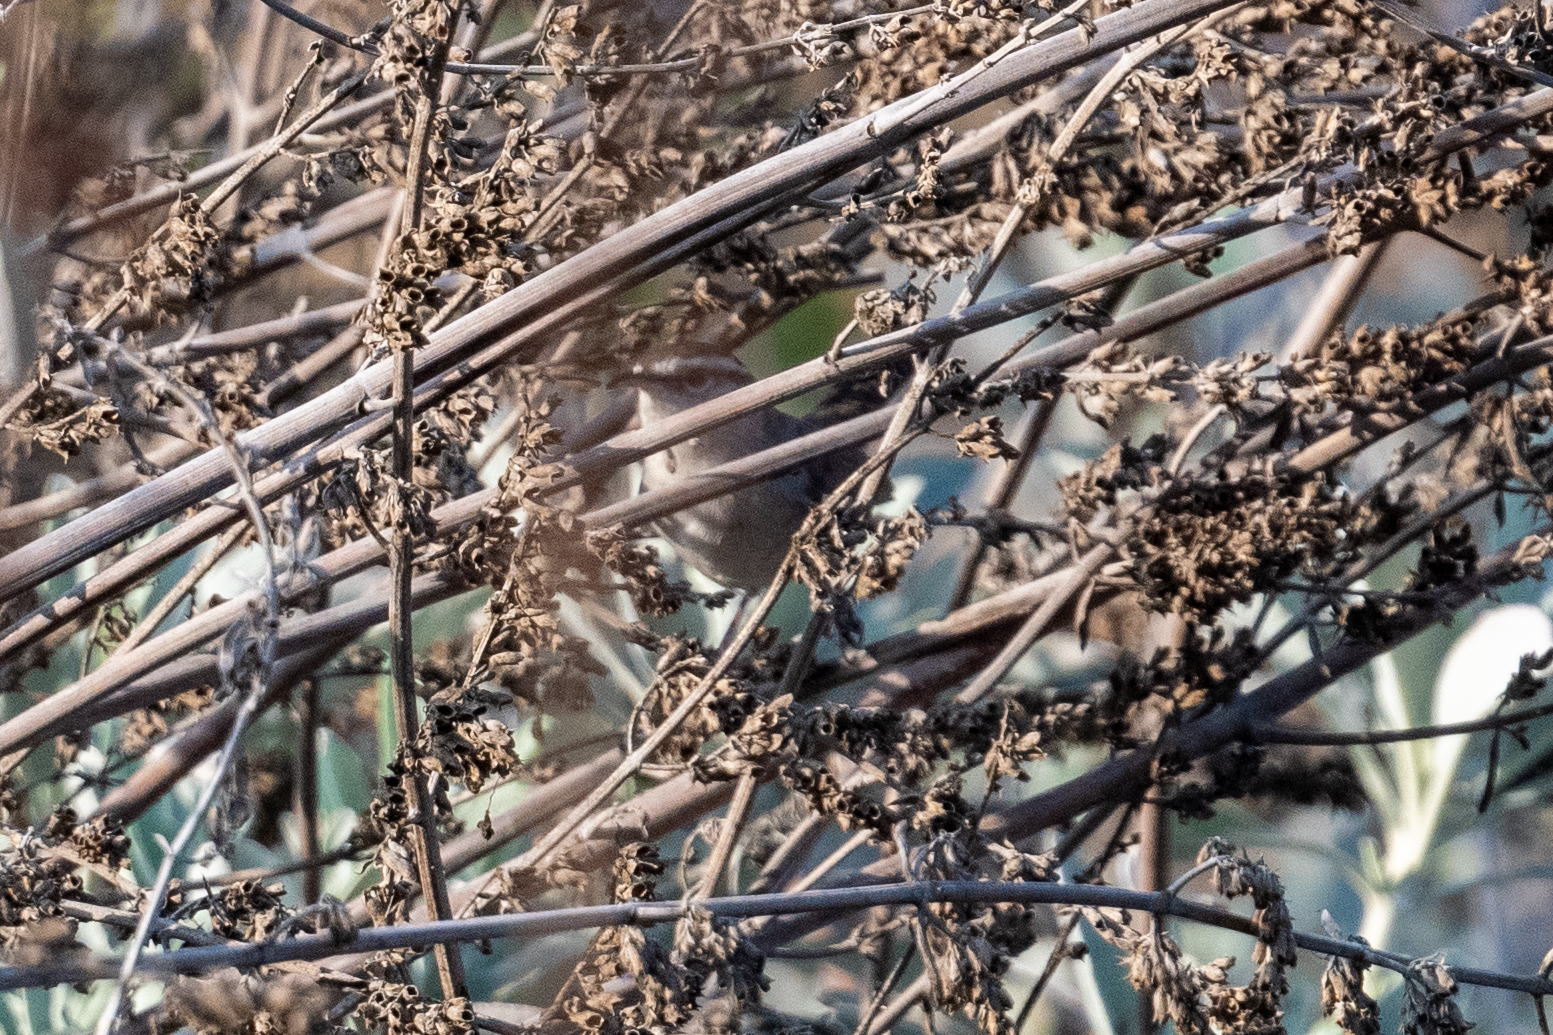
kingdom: Animalia
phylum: Chordata
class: Aves
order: Passeriformes
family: Troglodytidae
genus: Thryomanes
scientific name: Thryomanes bewickii
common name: Bewick's wren
